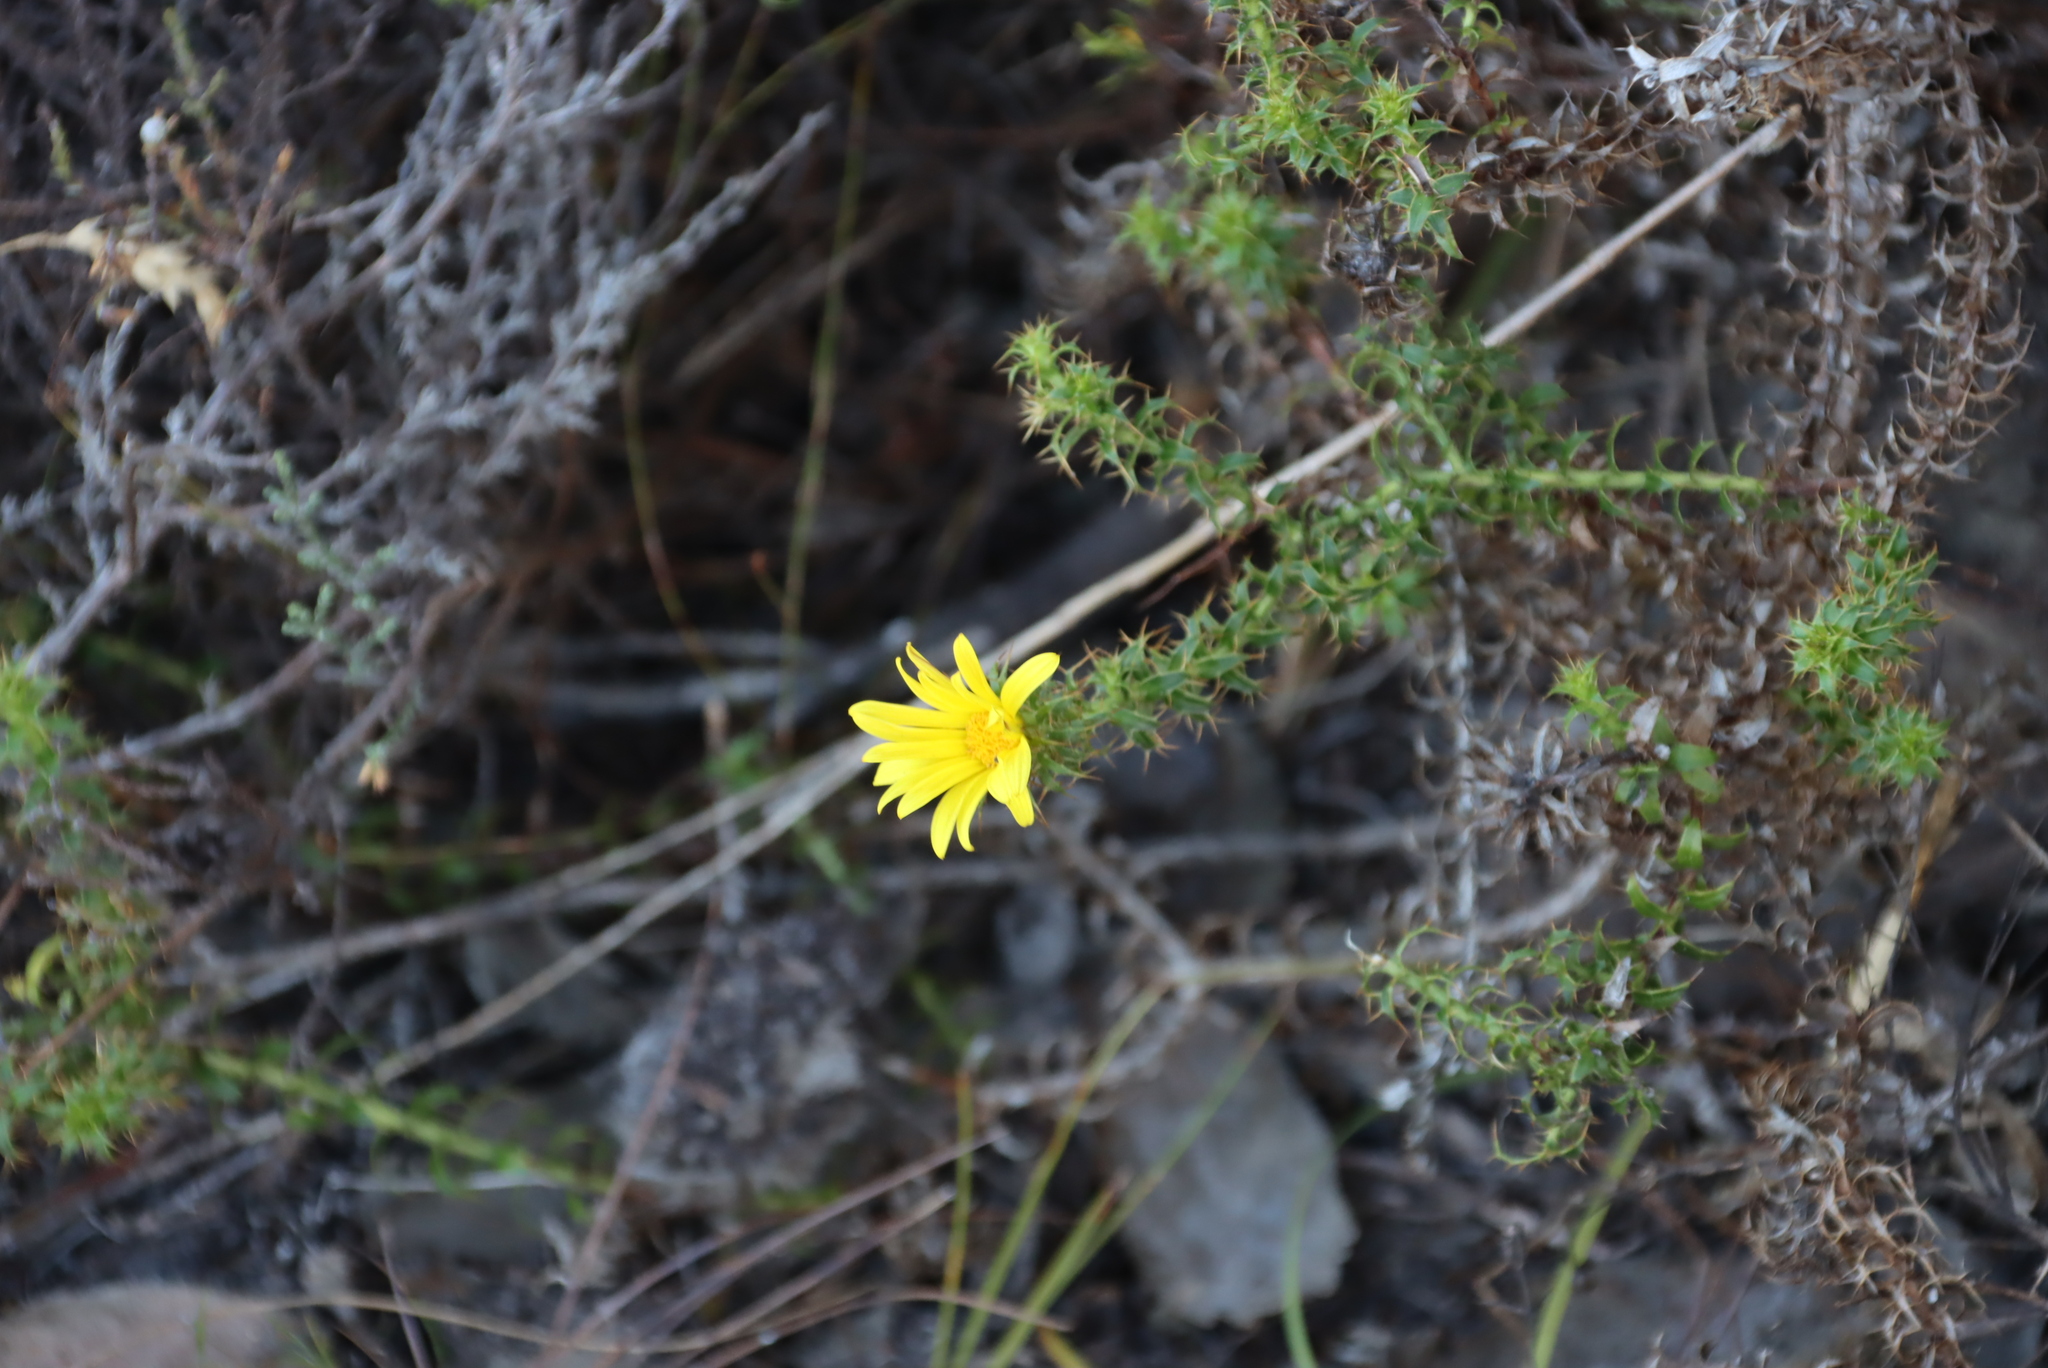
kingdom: Plantae
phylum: Tracheophyta
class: Magnoliopsida
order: Asterales
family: Asteraceae
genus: Cullumia
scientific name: Cullumia setosa
